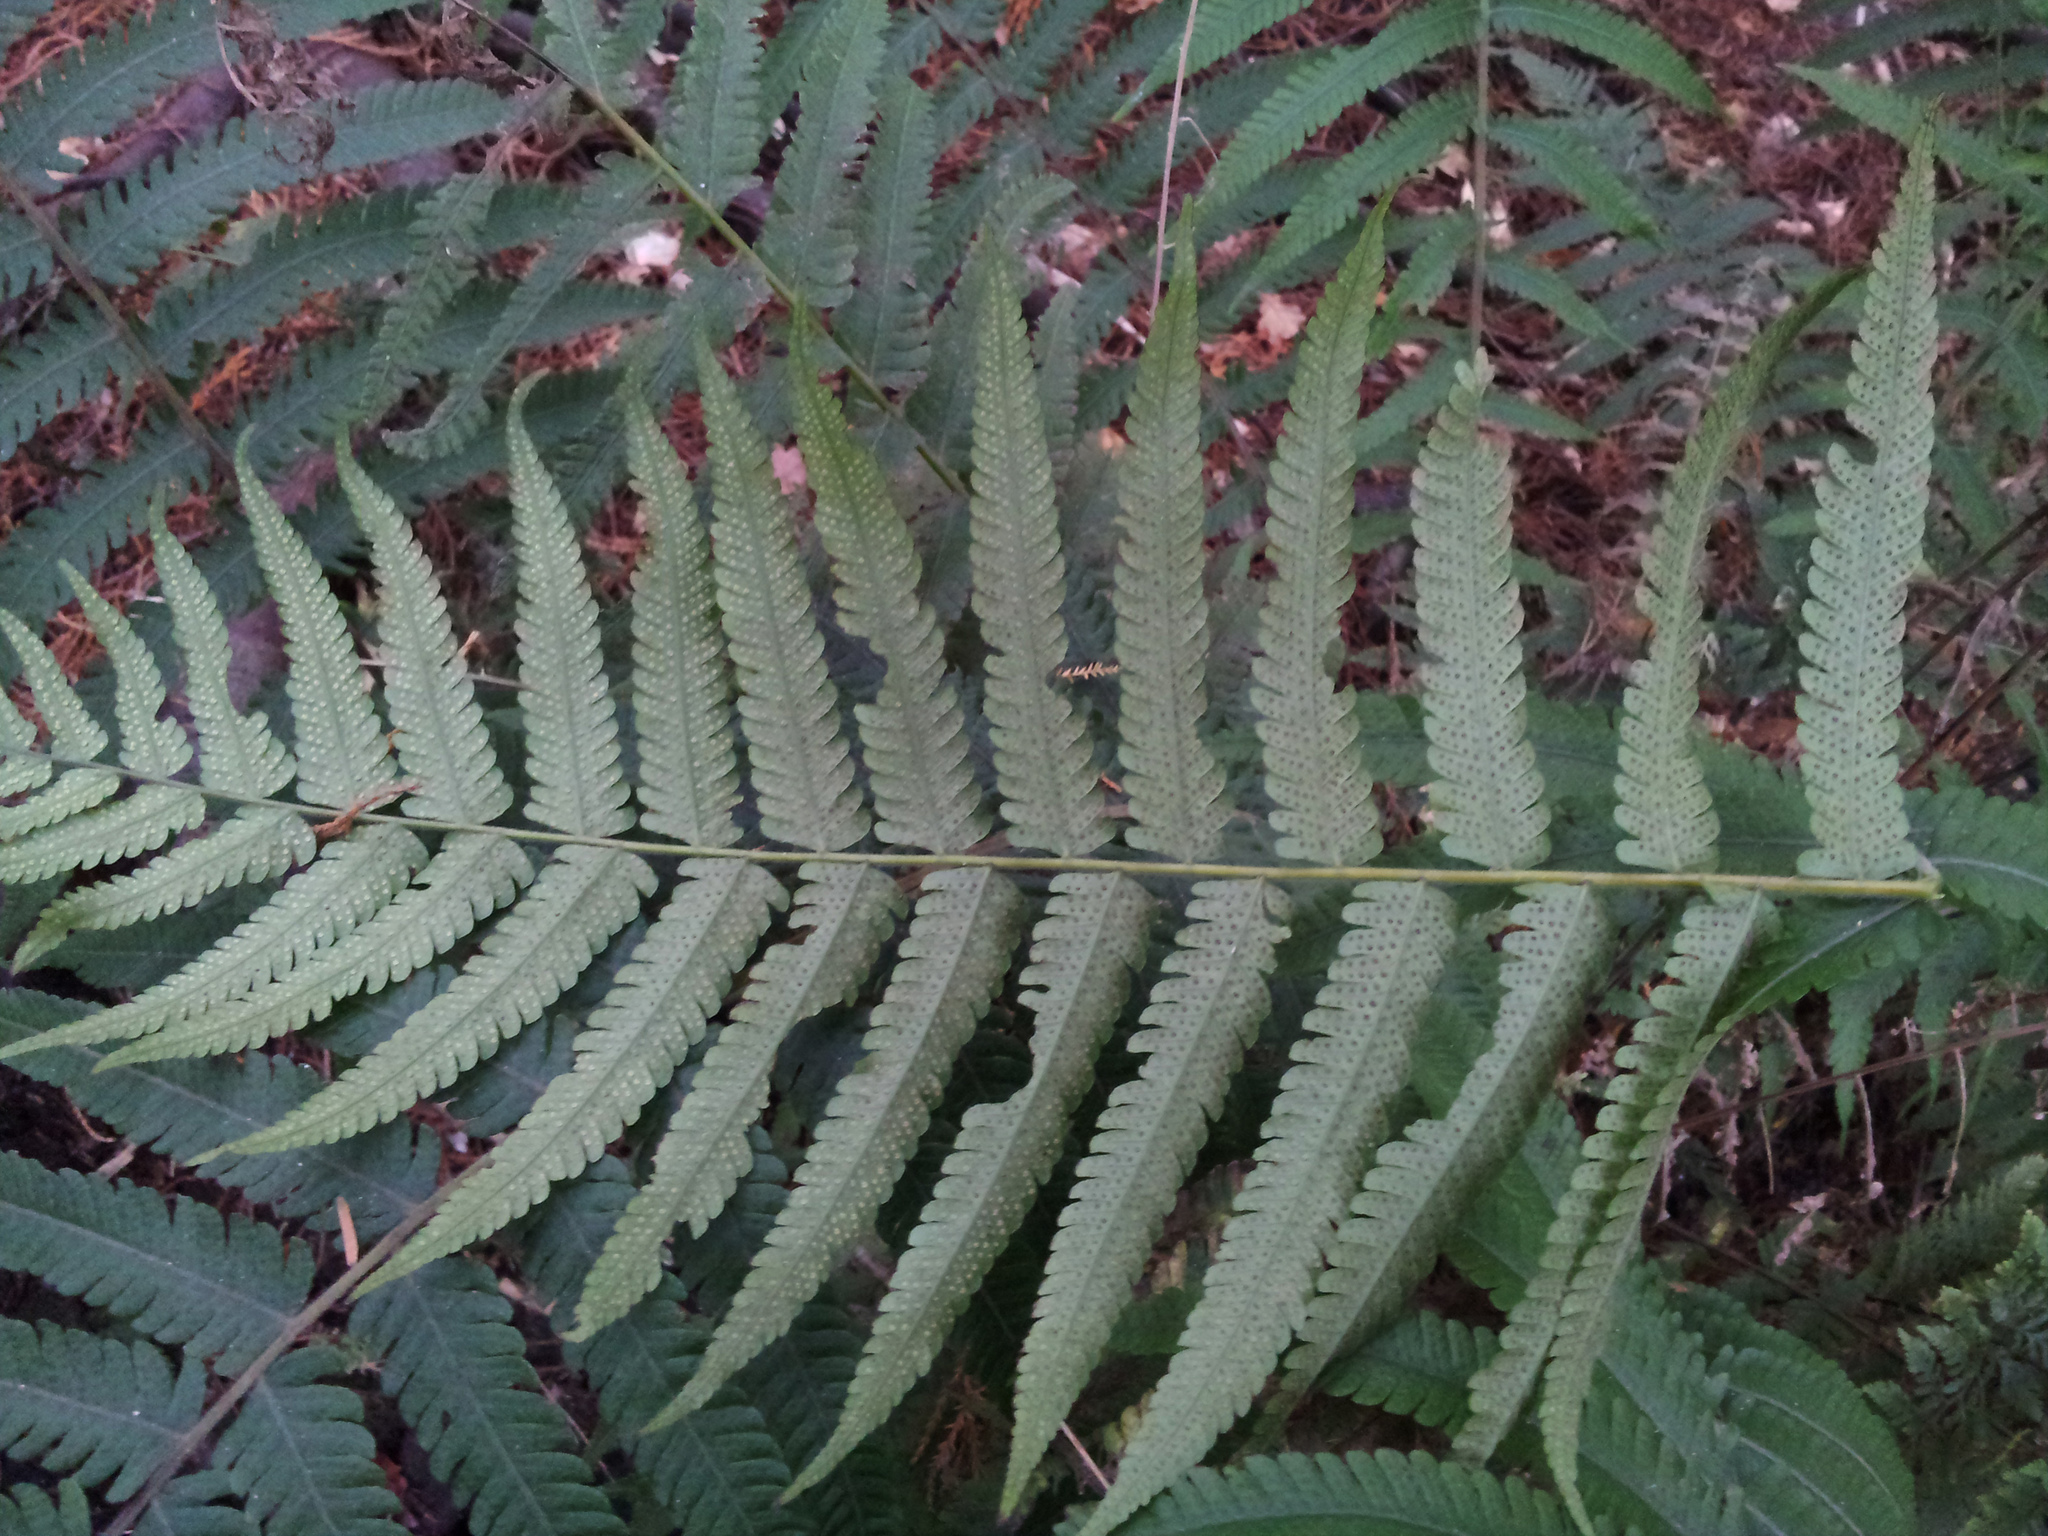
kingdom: Plantae
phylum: Tracheophyta
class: Polypodiopsida
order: Polypodiales
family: Thelypteridaceae
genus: Christella
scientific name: Christella dentata
